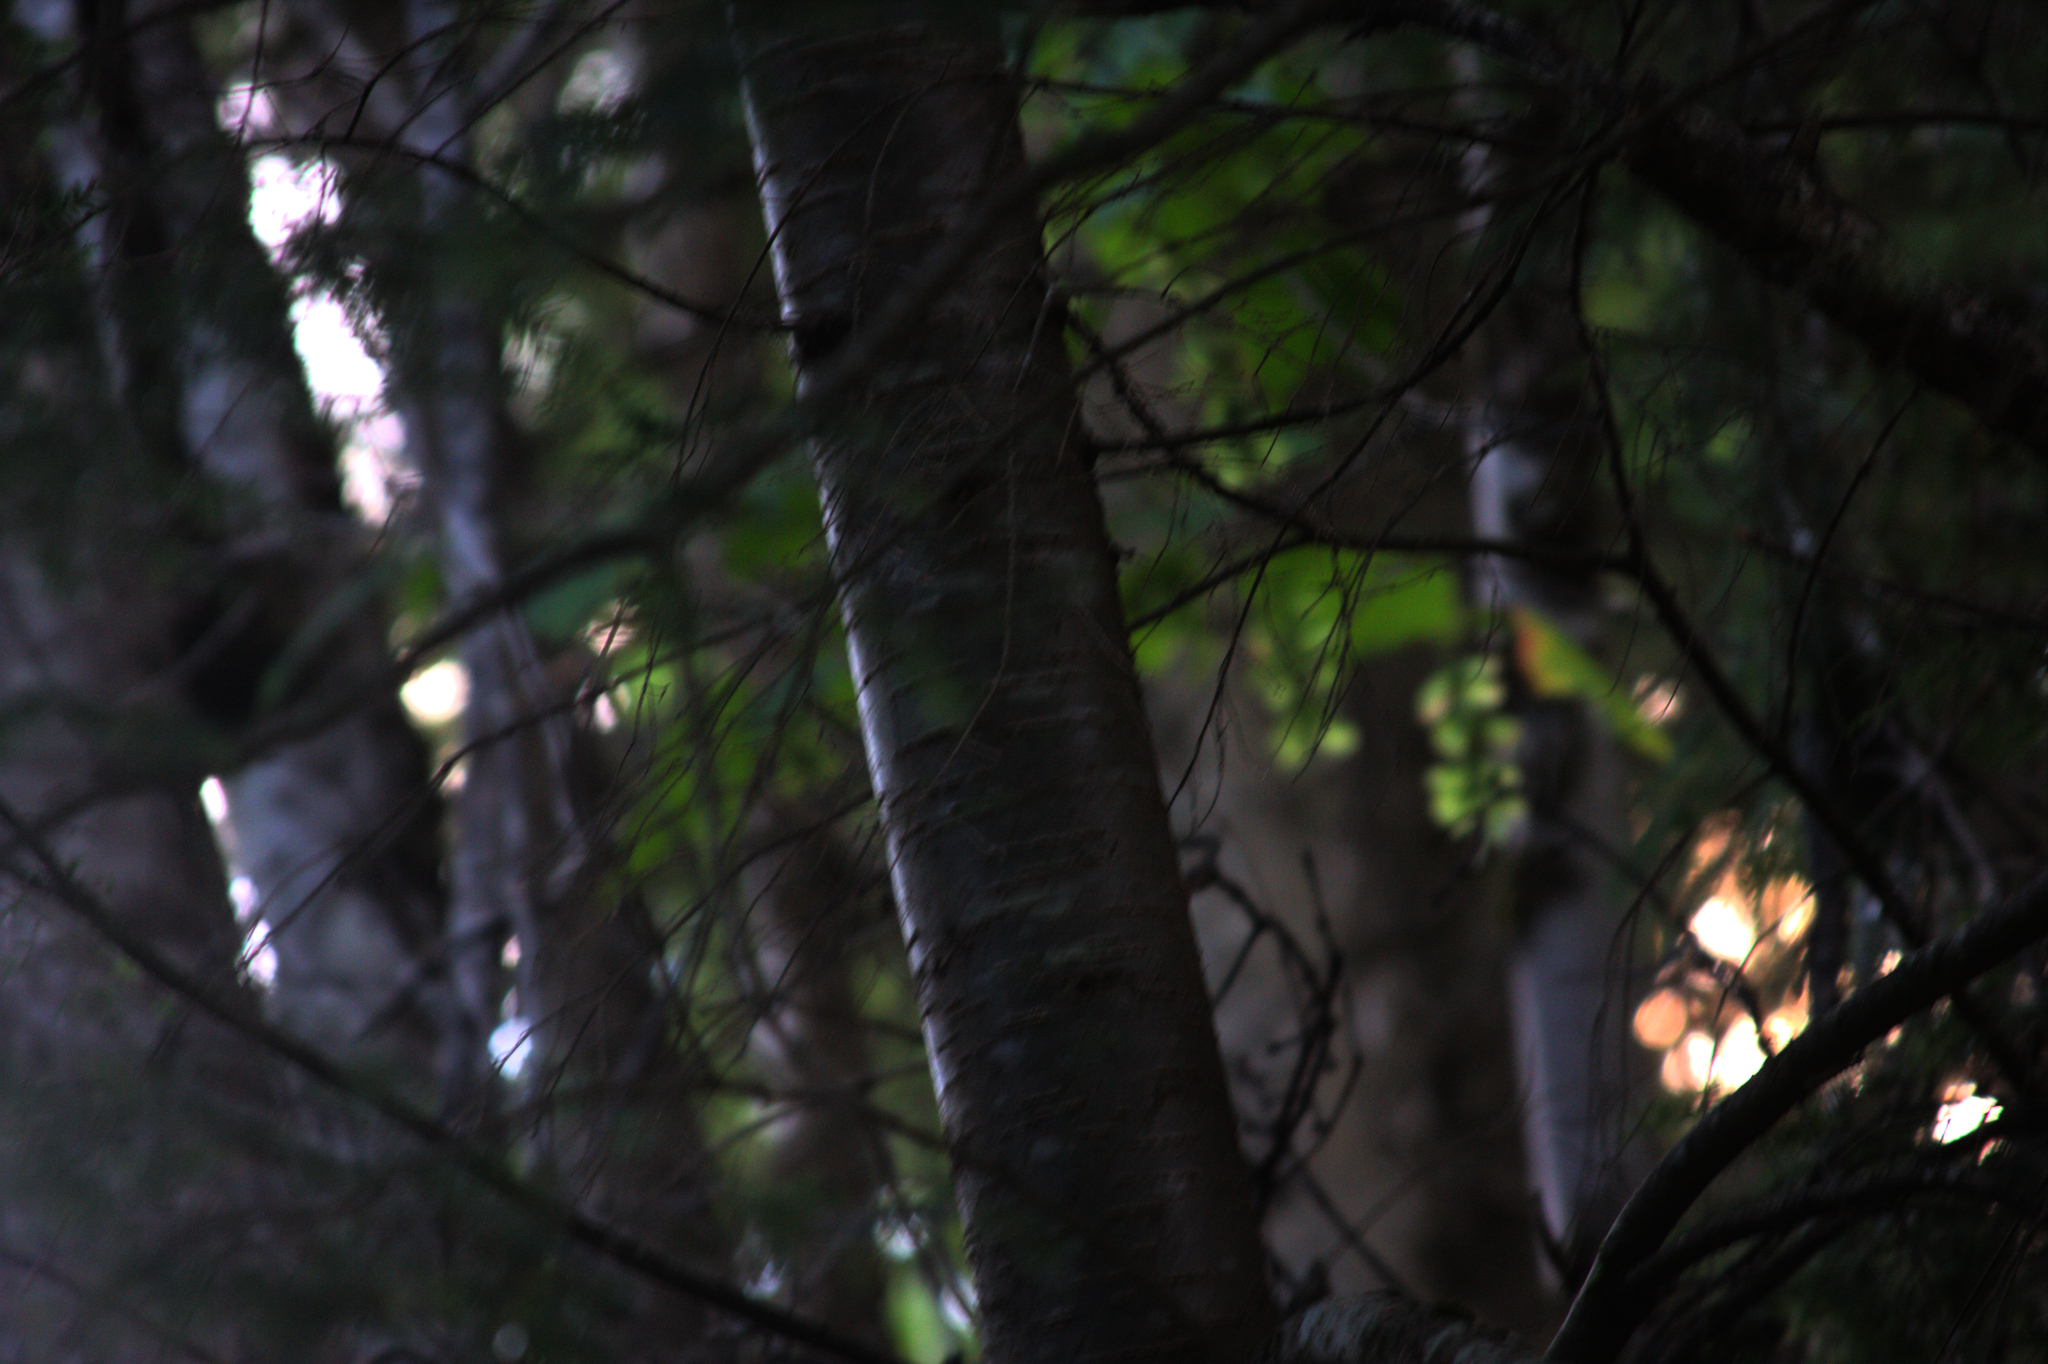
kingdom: Plantae
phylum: Tracheophyta
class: Pinopsida
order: Pinales
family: Pinaceae
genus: Tsuga
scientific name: Tsuga canadensis
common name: Eastern hemlock
